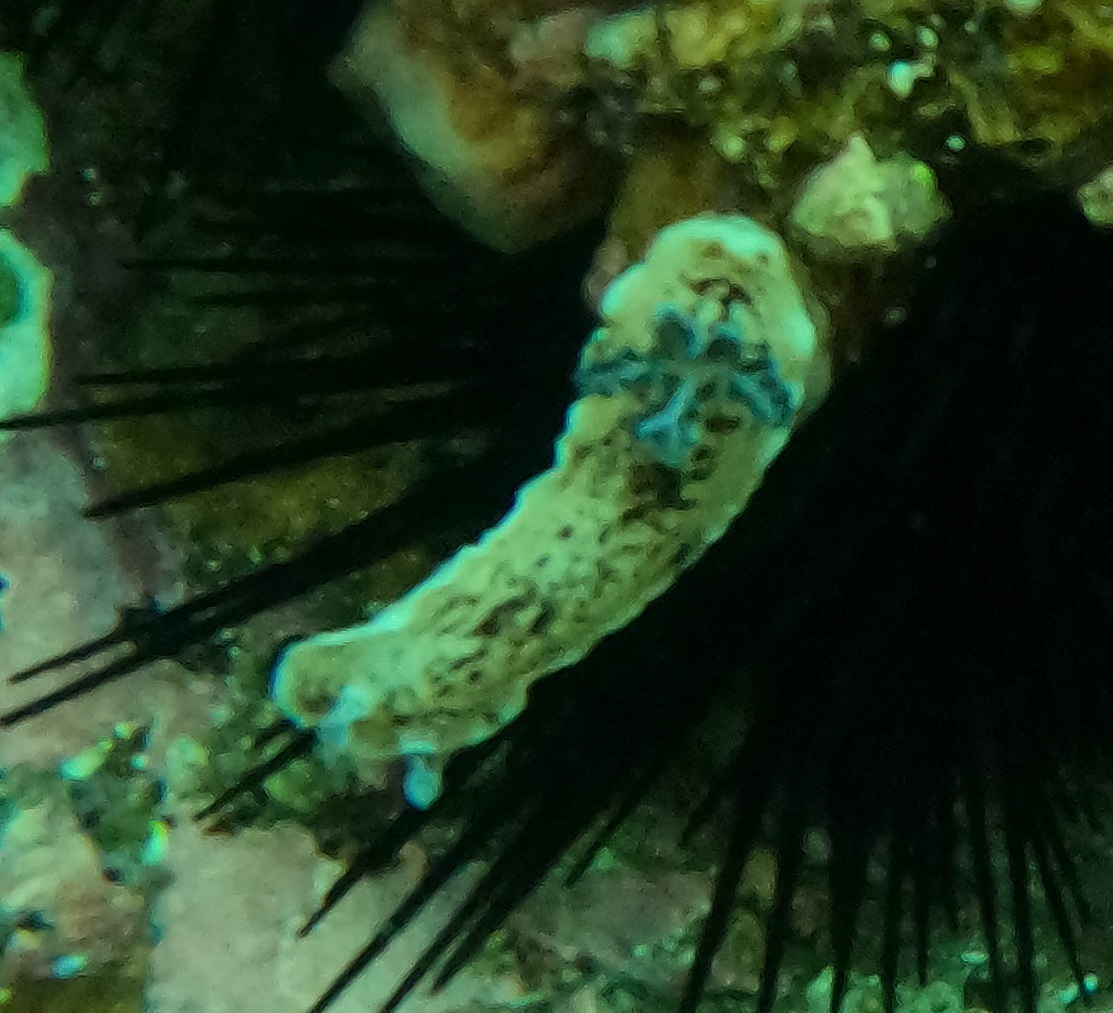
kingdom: Animalia
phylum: Mollusca
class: Gastropoda
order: Nudibranchia
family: Dorididae
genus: Aphelodoris
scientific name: Aphelodoris varia
